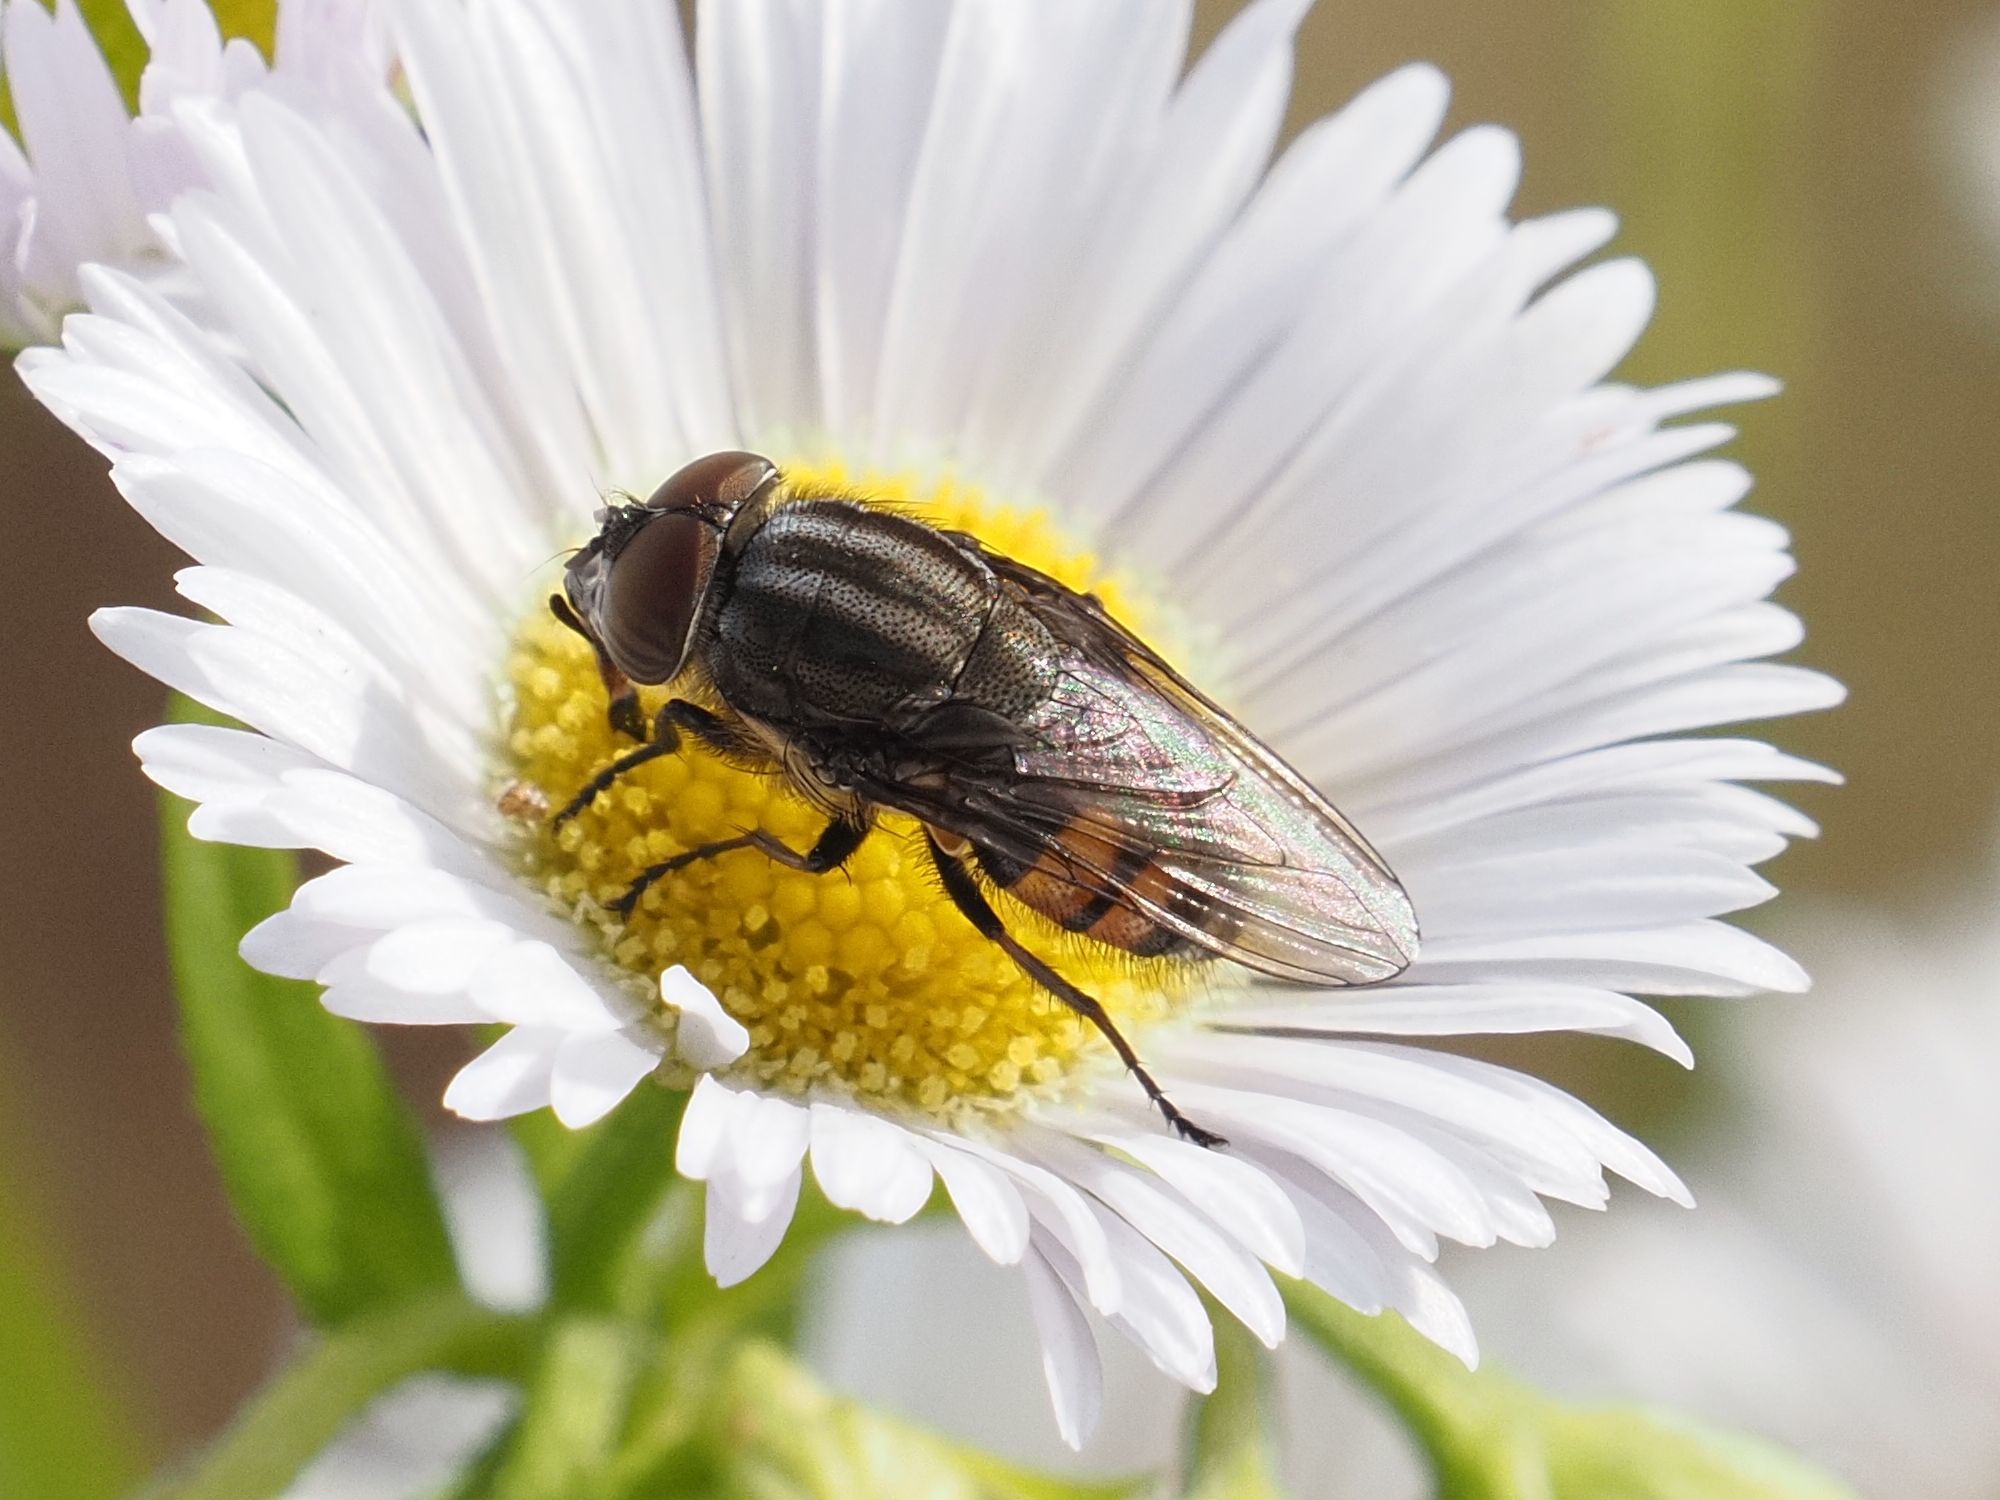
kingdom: Animalia
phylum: Arthropoda
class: Insecta
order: Diptera
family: Calliphoridae
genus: Stomorhina
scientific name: Stomorhina lunata
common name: Locust blowfly
